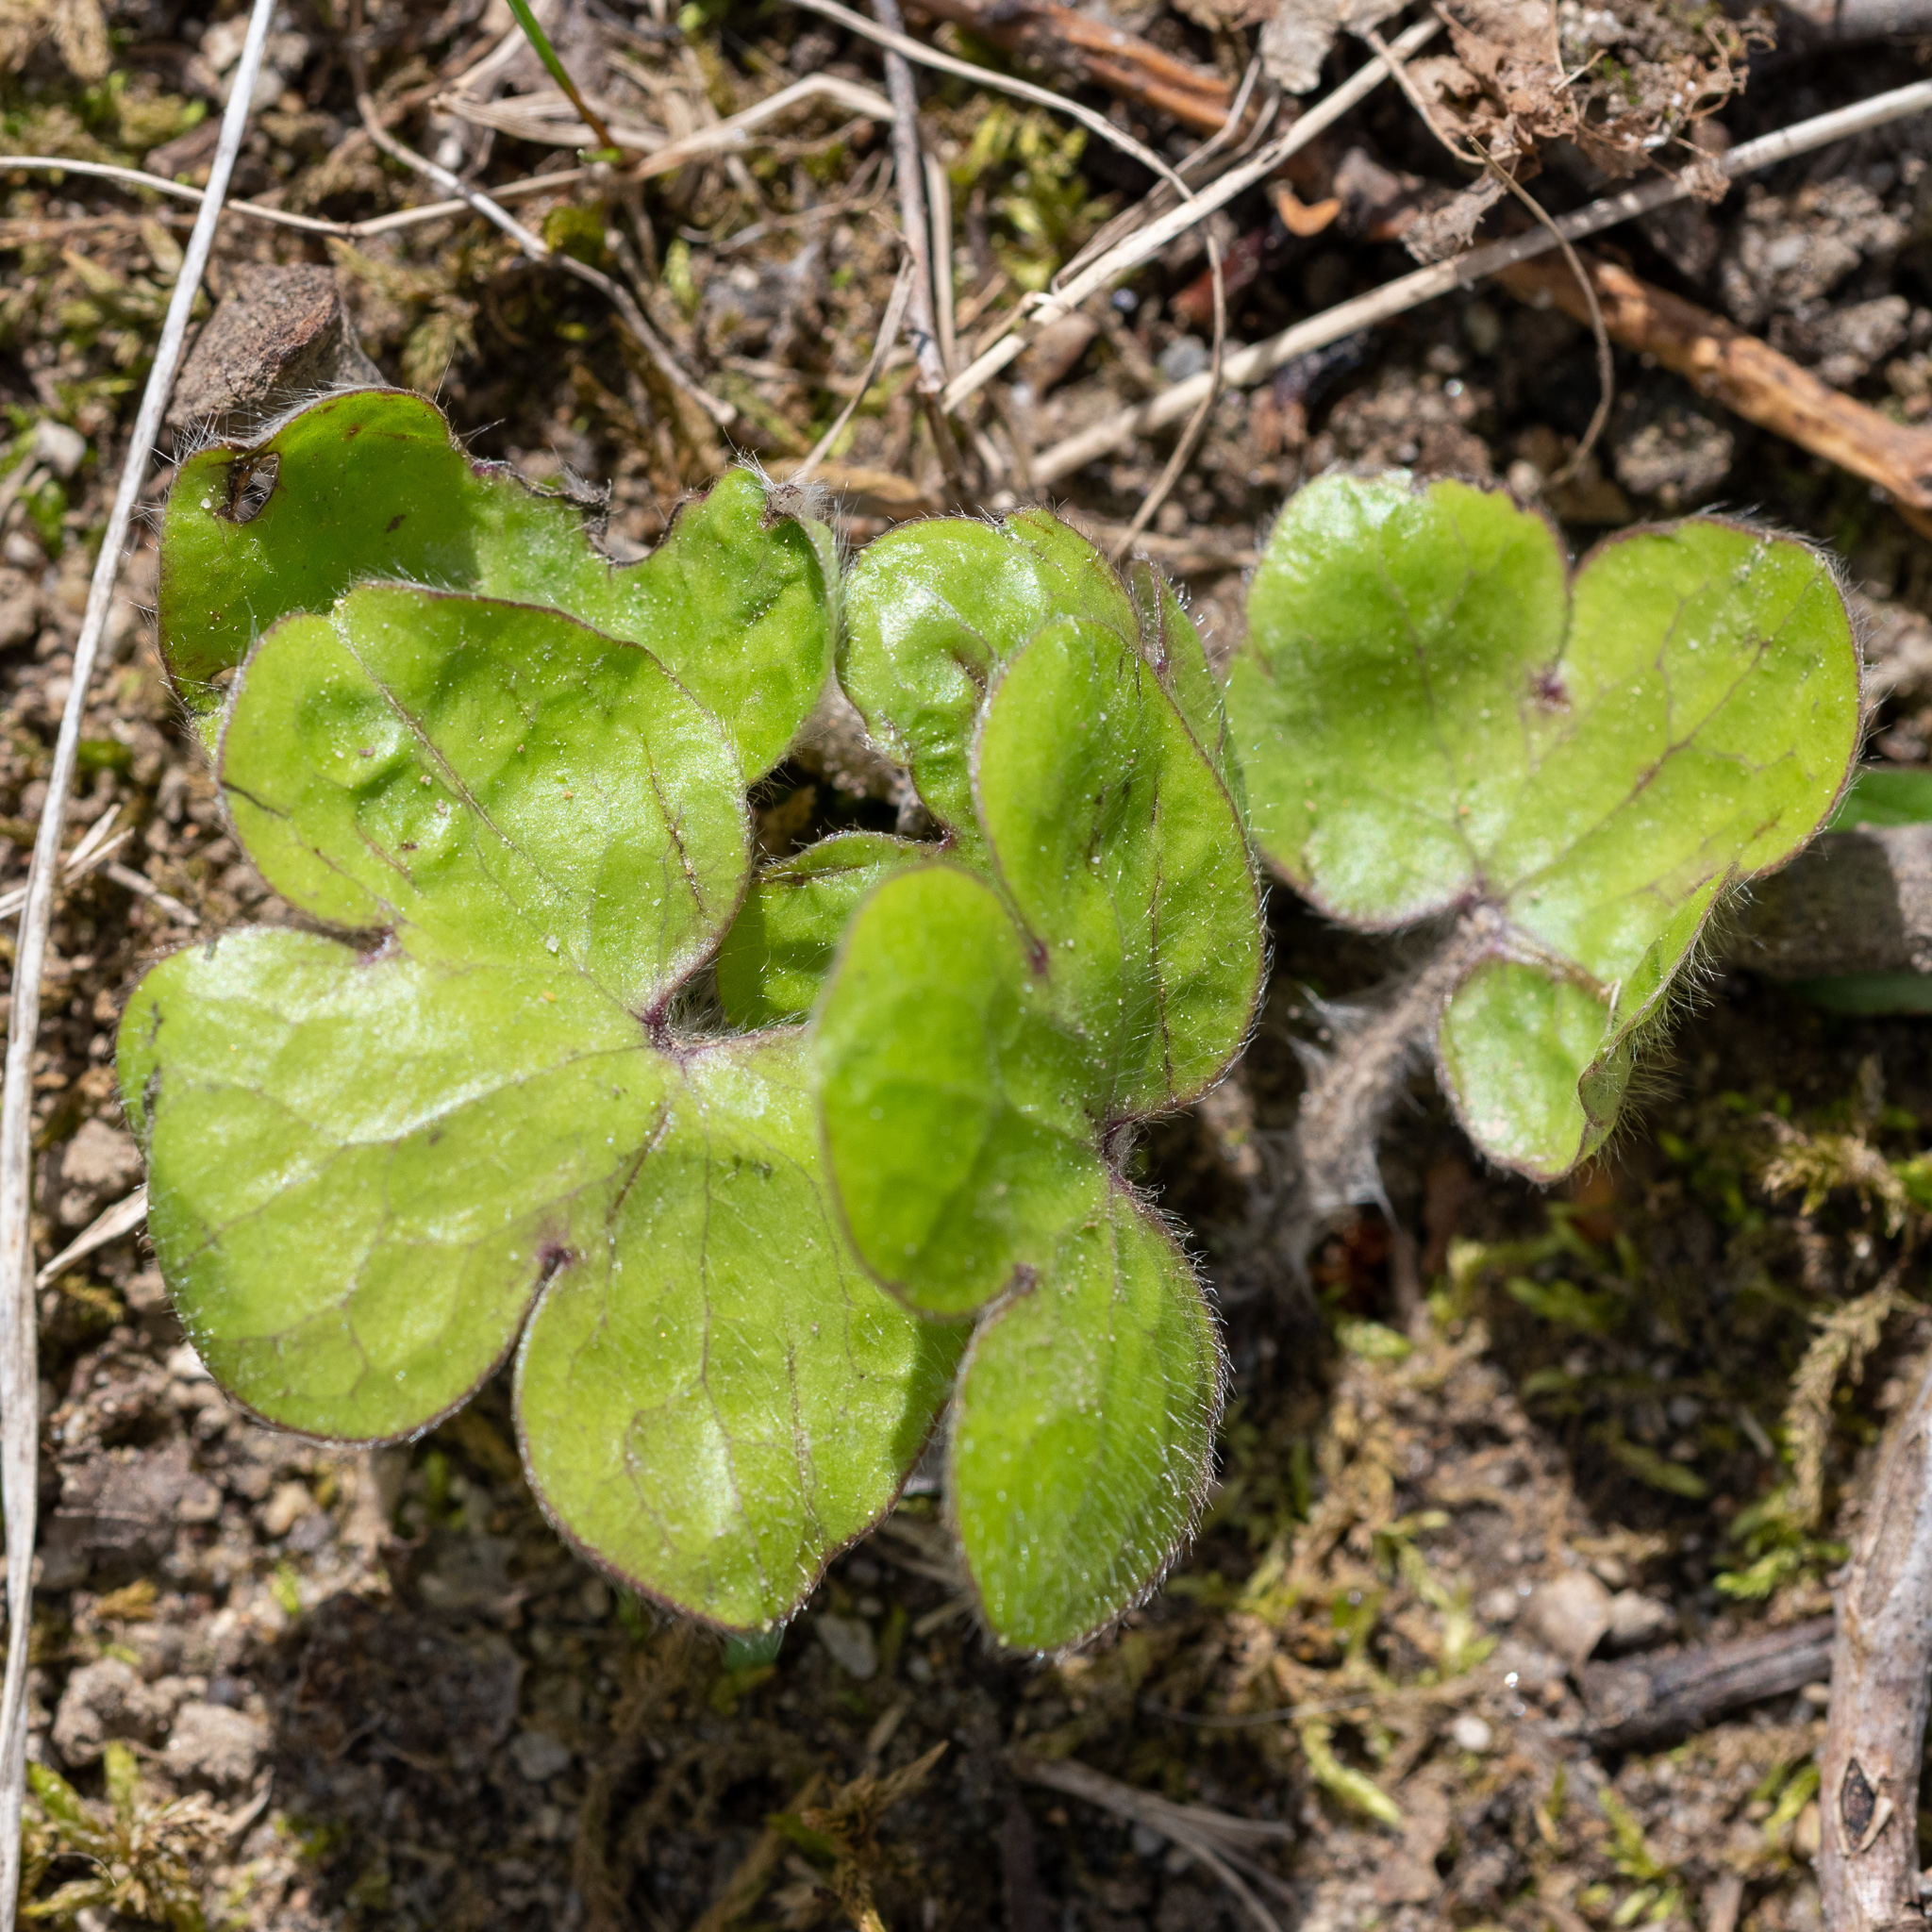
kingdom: Plantae
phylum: Tracheophyta
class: Magnoliopsida
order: Ranunculales
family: Ranunculaceae
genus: Hepatica
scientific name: Hepatica americana
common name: American hepatica
